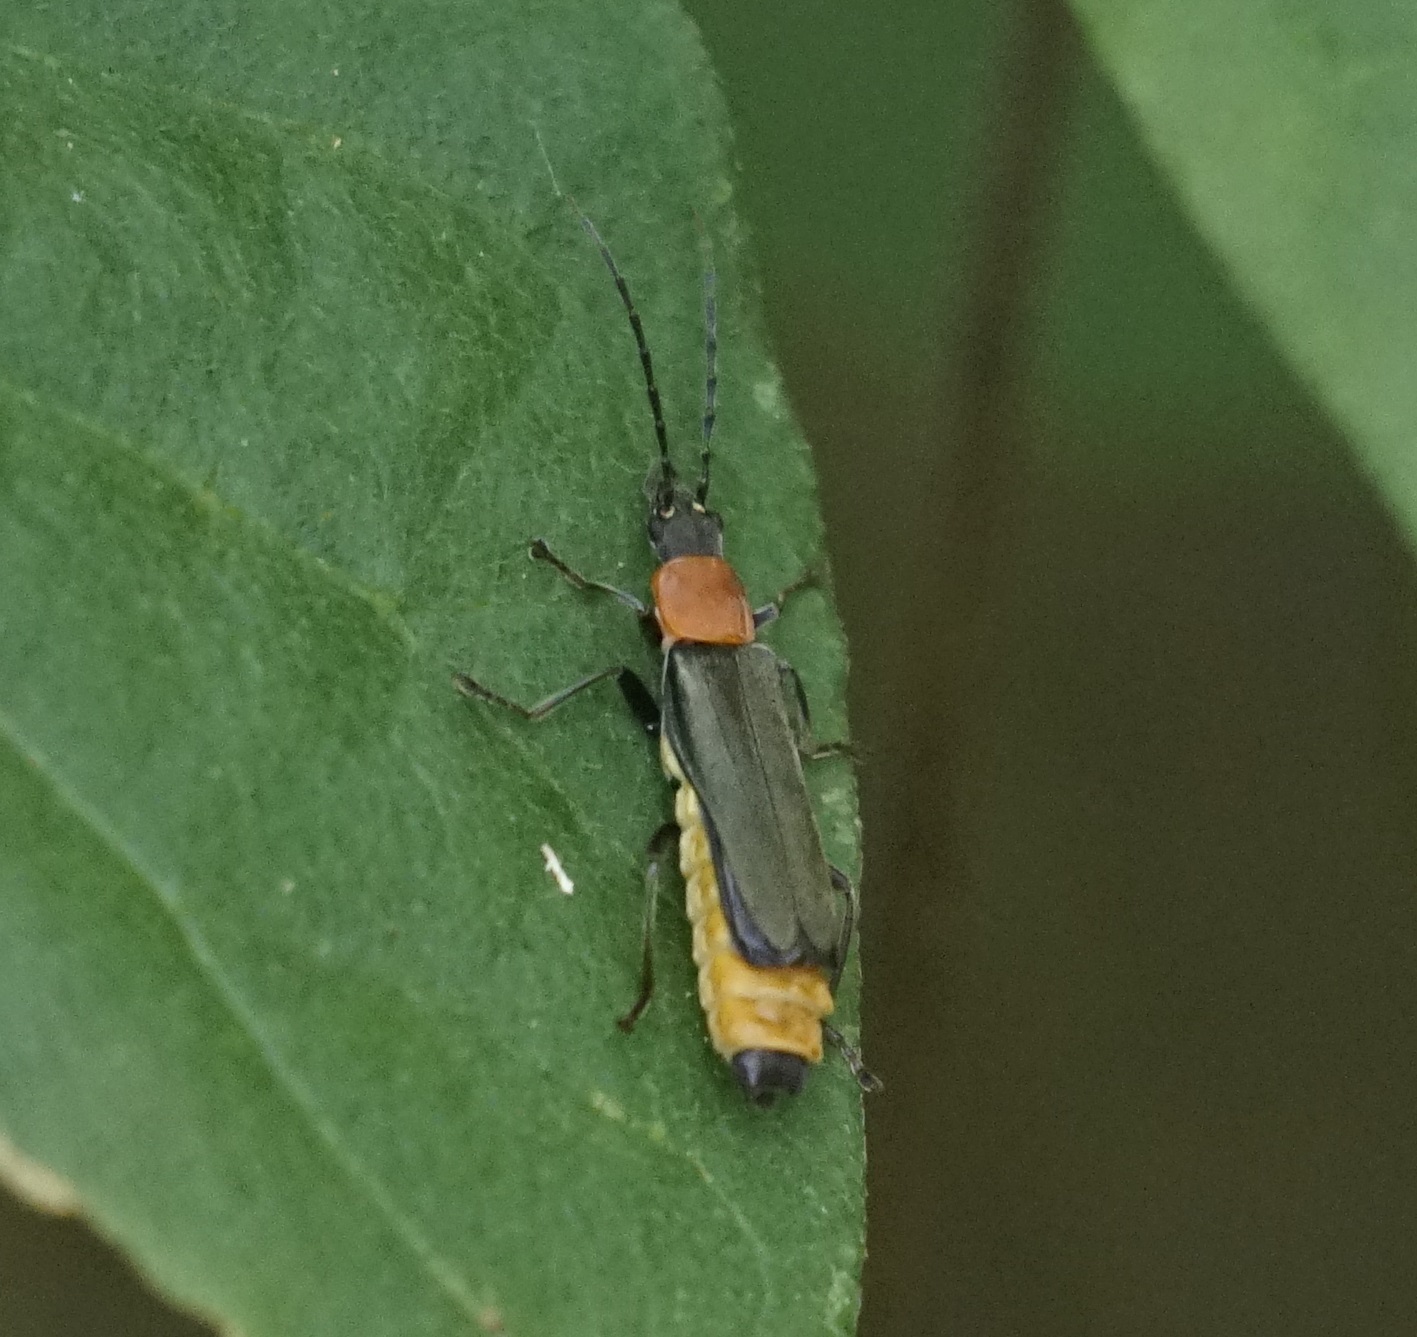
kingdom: Animalia
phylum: Arthropoda
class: Insecta
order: Coleoptera
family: Cantharidae
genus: Chauliognathus
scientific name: Chauliognathus
